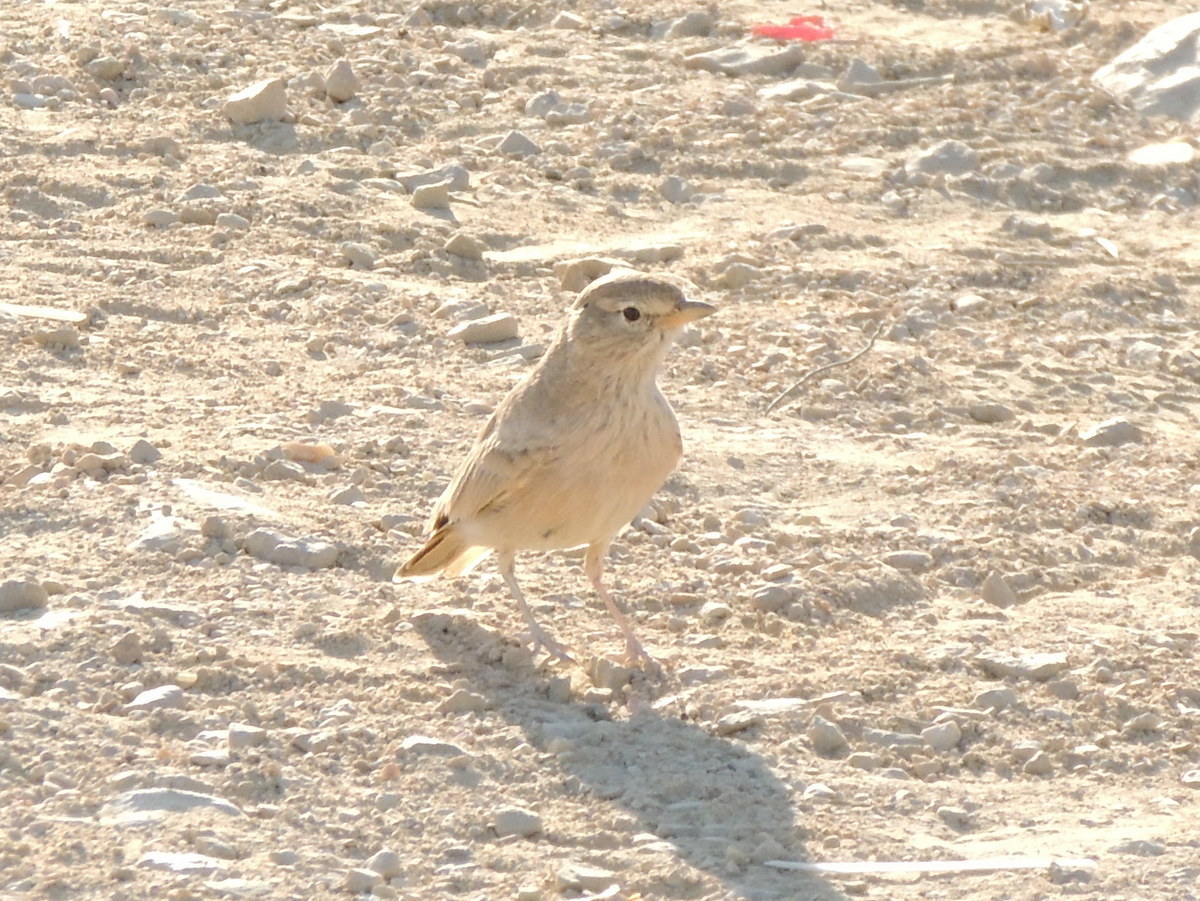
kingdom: Animalia
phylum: Chordata
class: Aves
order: Passeriformes
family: Alaudidae
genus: Ammomanes
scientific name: Ammomanes deserti
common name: Desert lark
